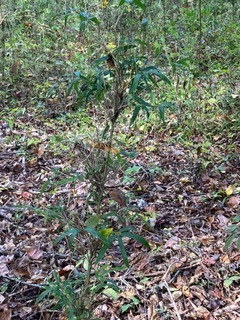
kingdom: Plantae
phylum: Tracheophyta
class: Liliopsida
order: Poales
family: Poaceae
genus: Arundinaria
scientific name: Arundinaria gigantea
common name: Giant cane
